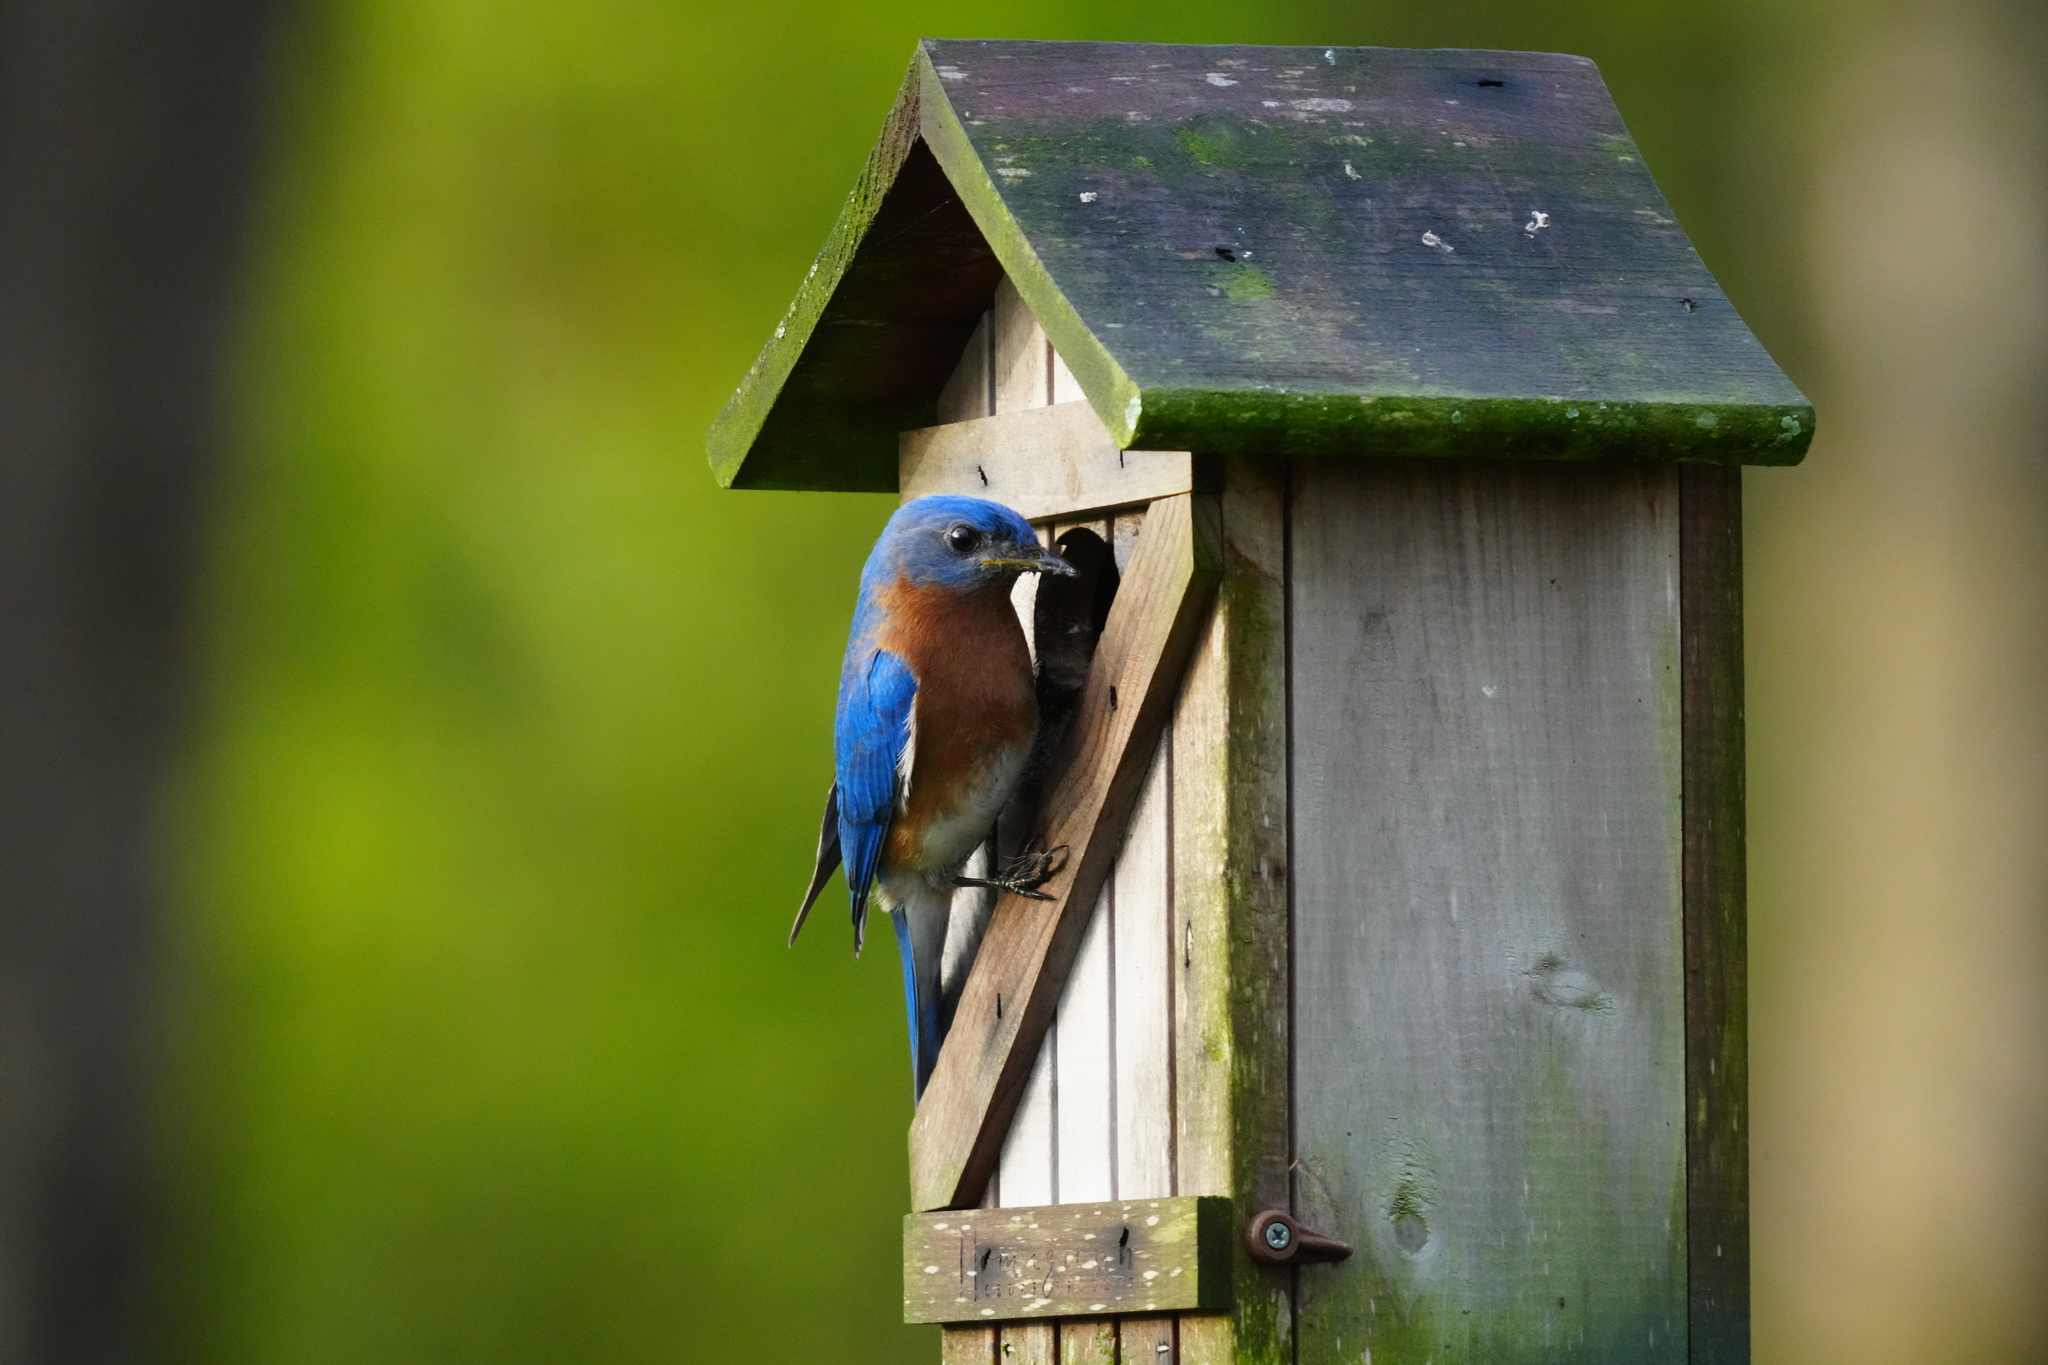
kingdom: Animalia
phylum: Chordata
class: Aves
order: Passeriformes
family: Turdidae
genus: Sialia
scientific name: Sialia sialis
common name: Eastern bluebird
